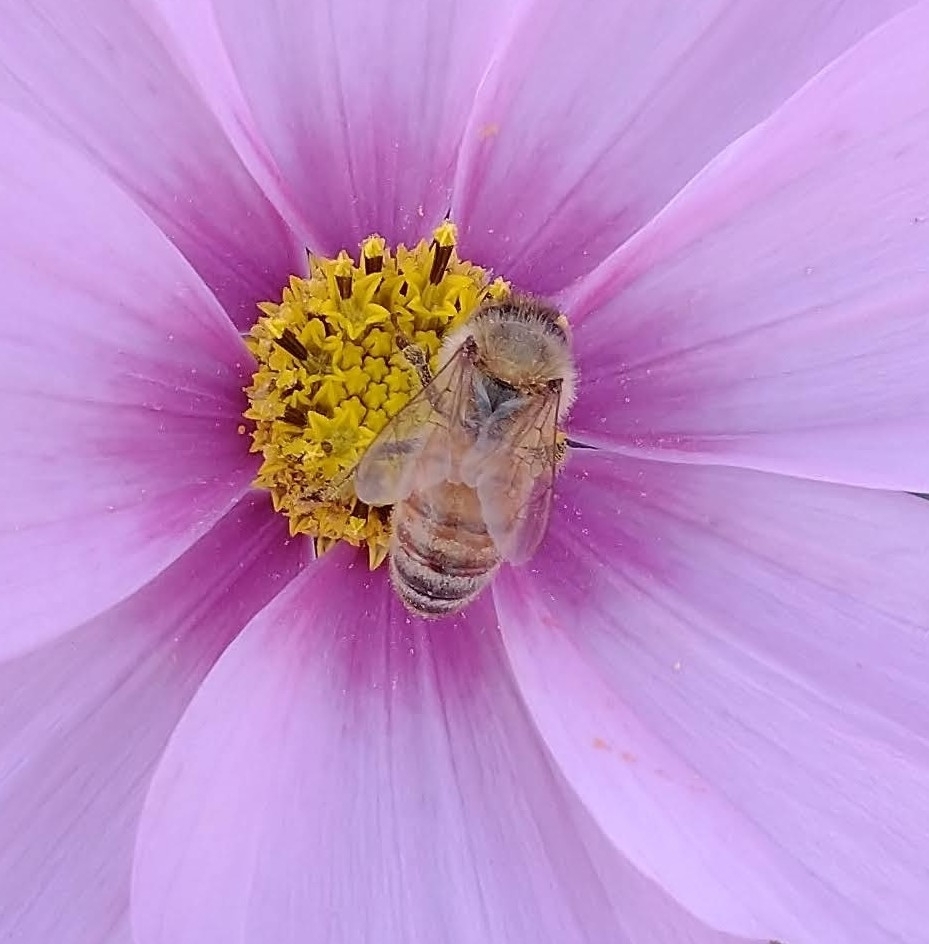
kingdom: Animalia
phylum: Arthropoda
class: Insecta
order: Hymenoptera
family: Apidae
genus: Apis
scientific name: Apis mellifera
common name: Honey bee
